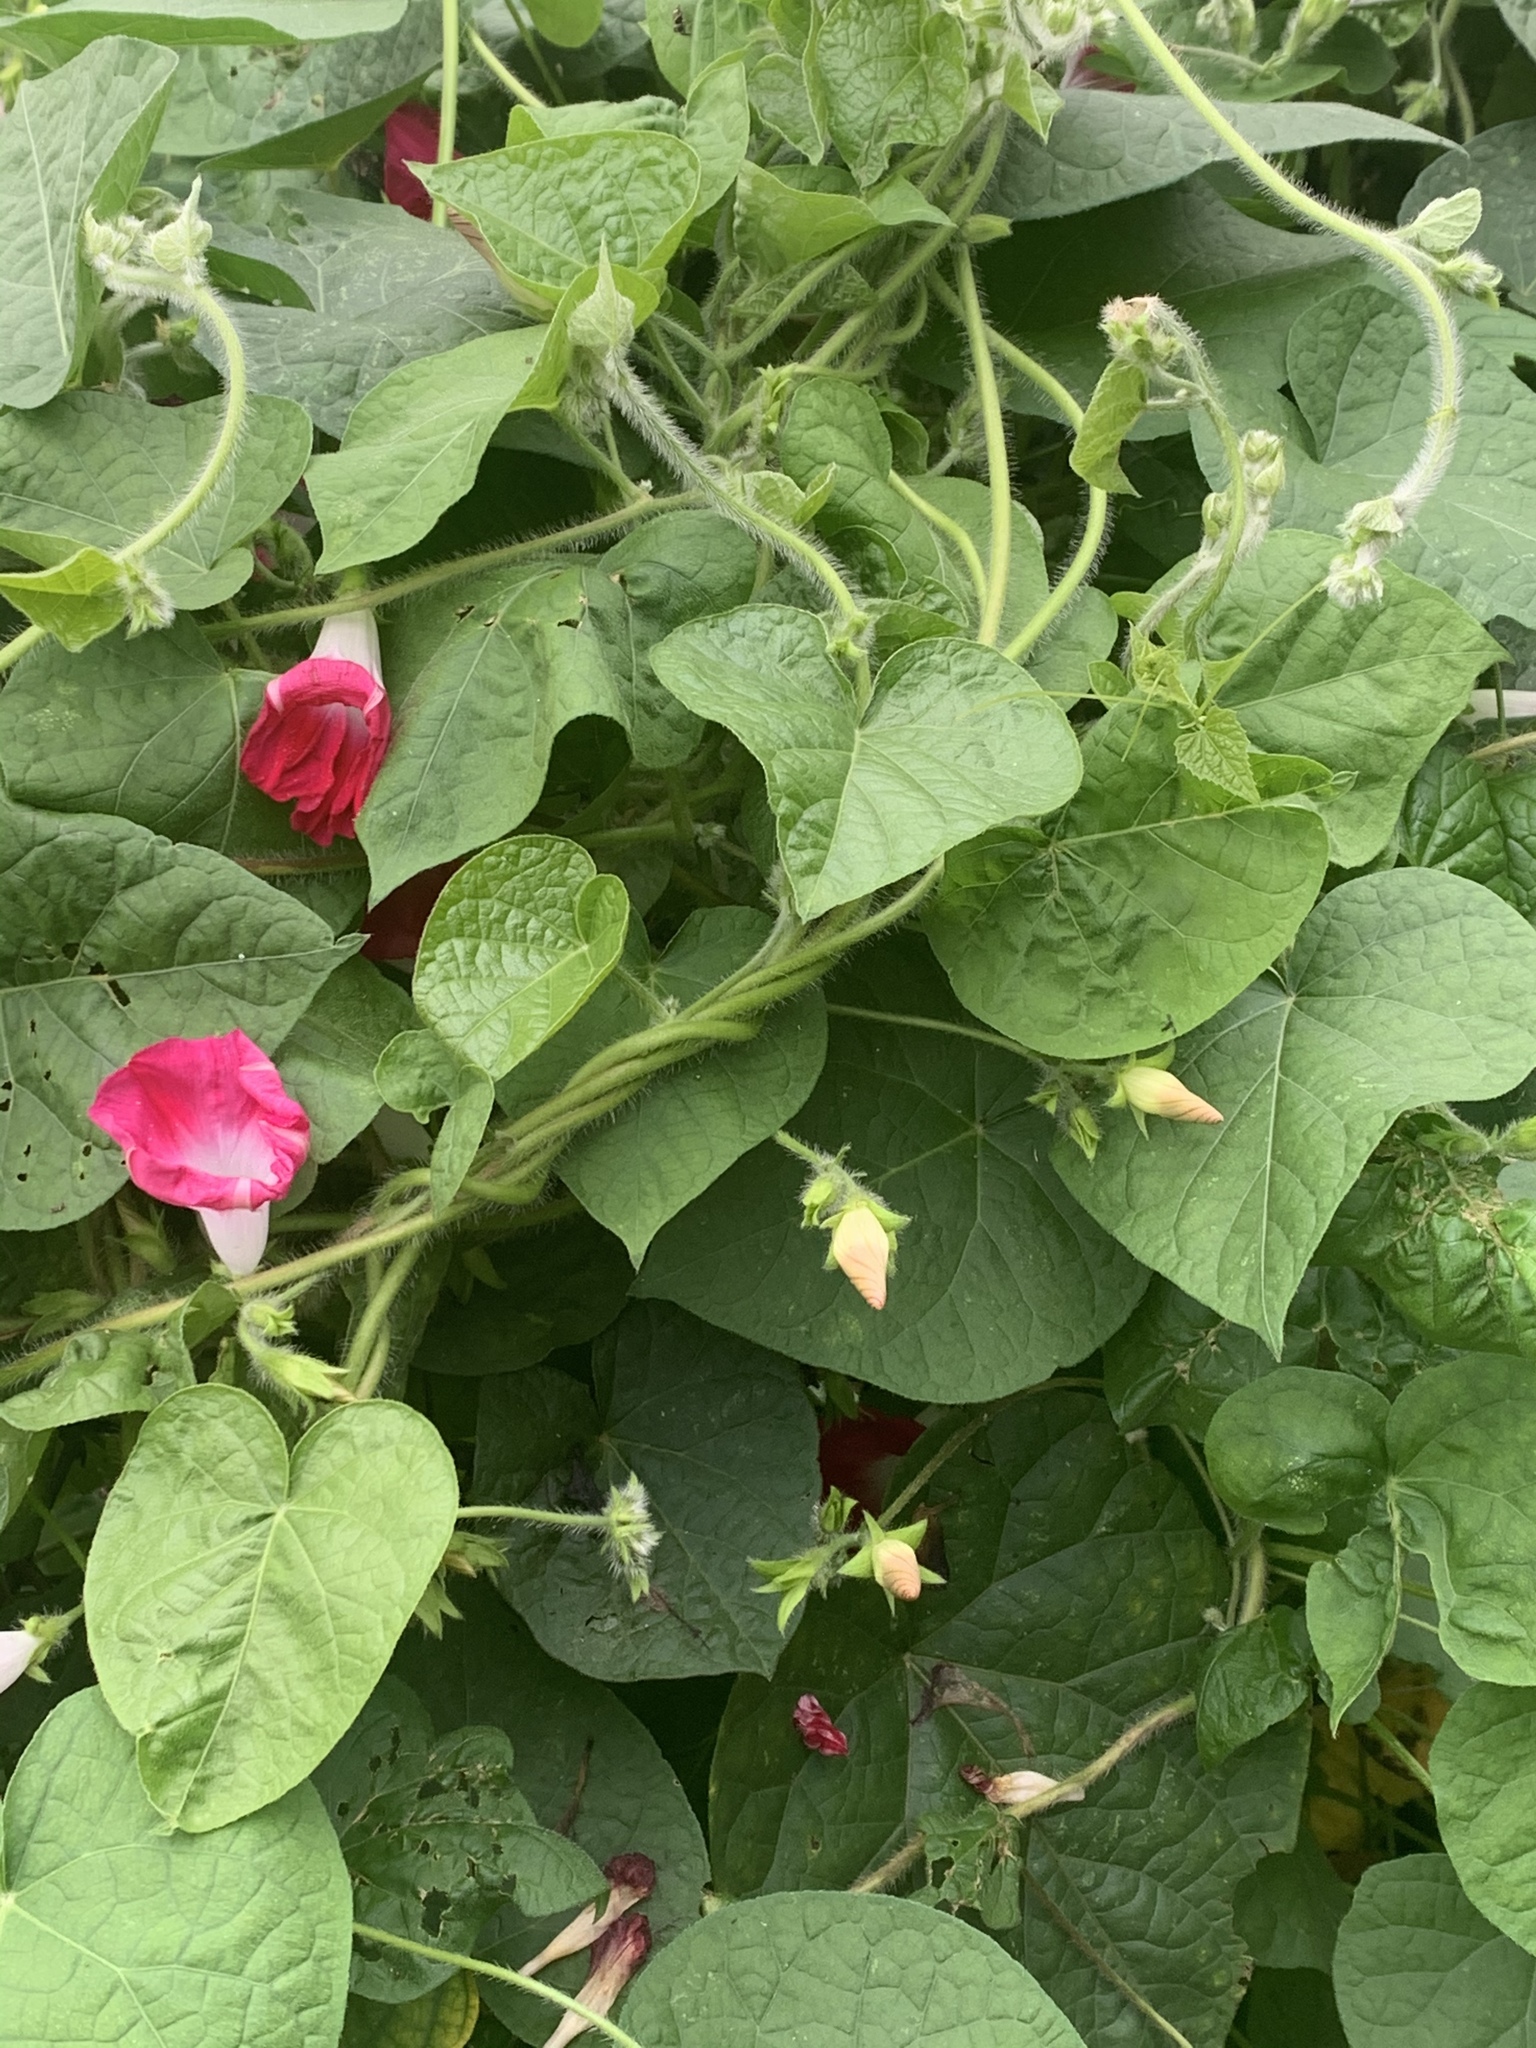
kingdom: Plantae
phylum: Tracheophyta
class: Magnoliopsida
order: Solanales
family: Convolvulaceae
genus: Ipomoea
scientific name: Ipomoea purpurea
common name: Common morning-glory
